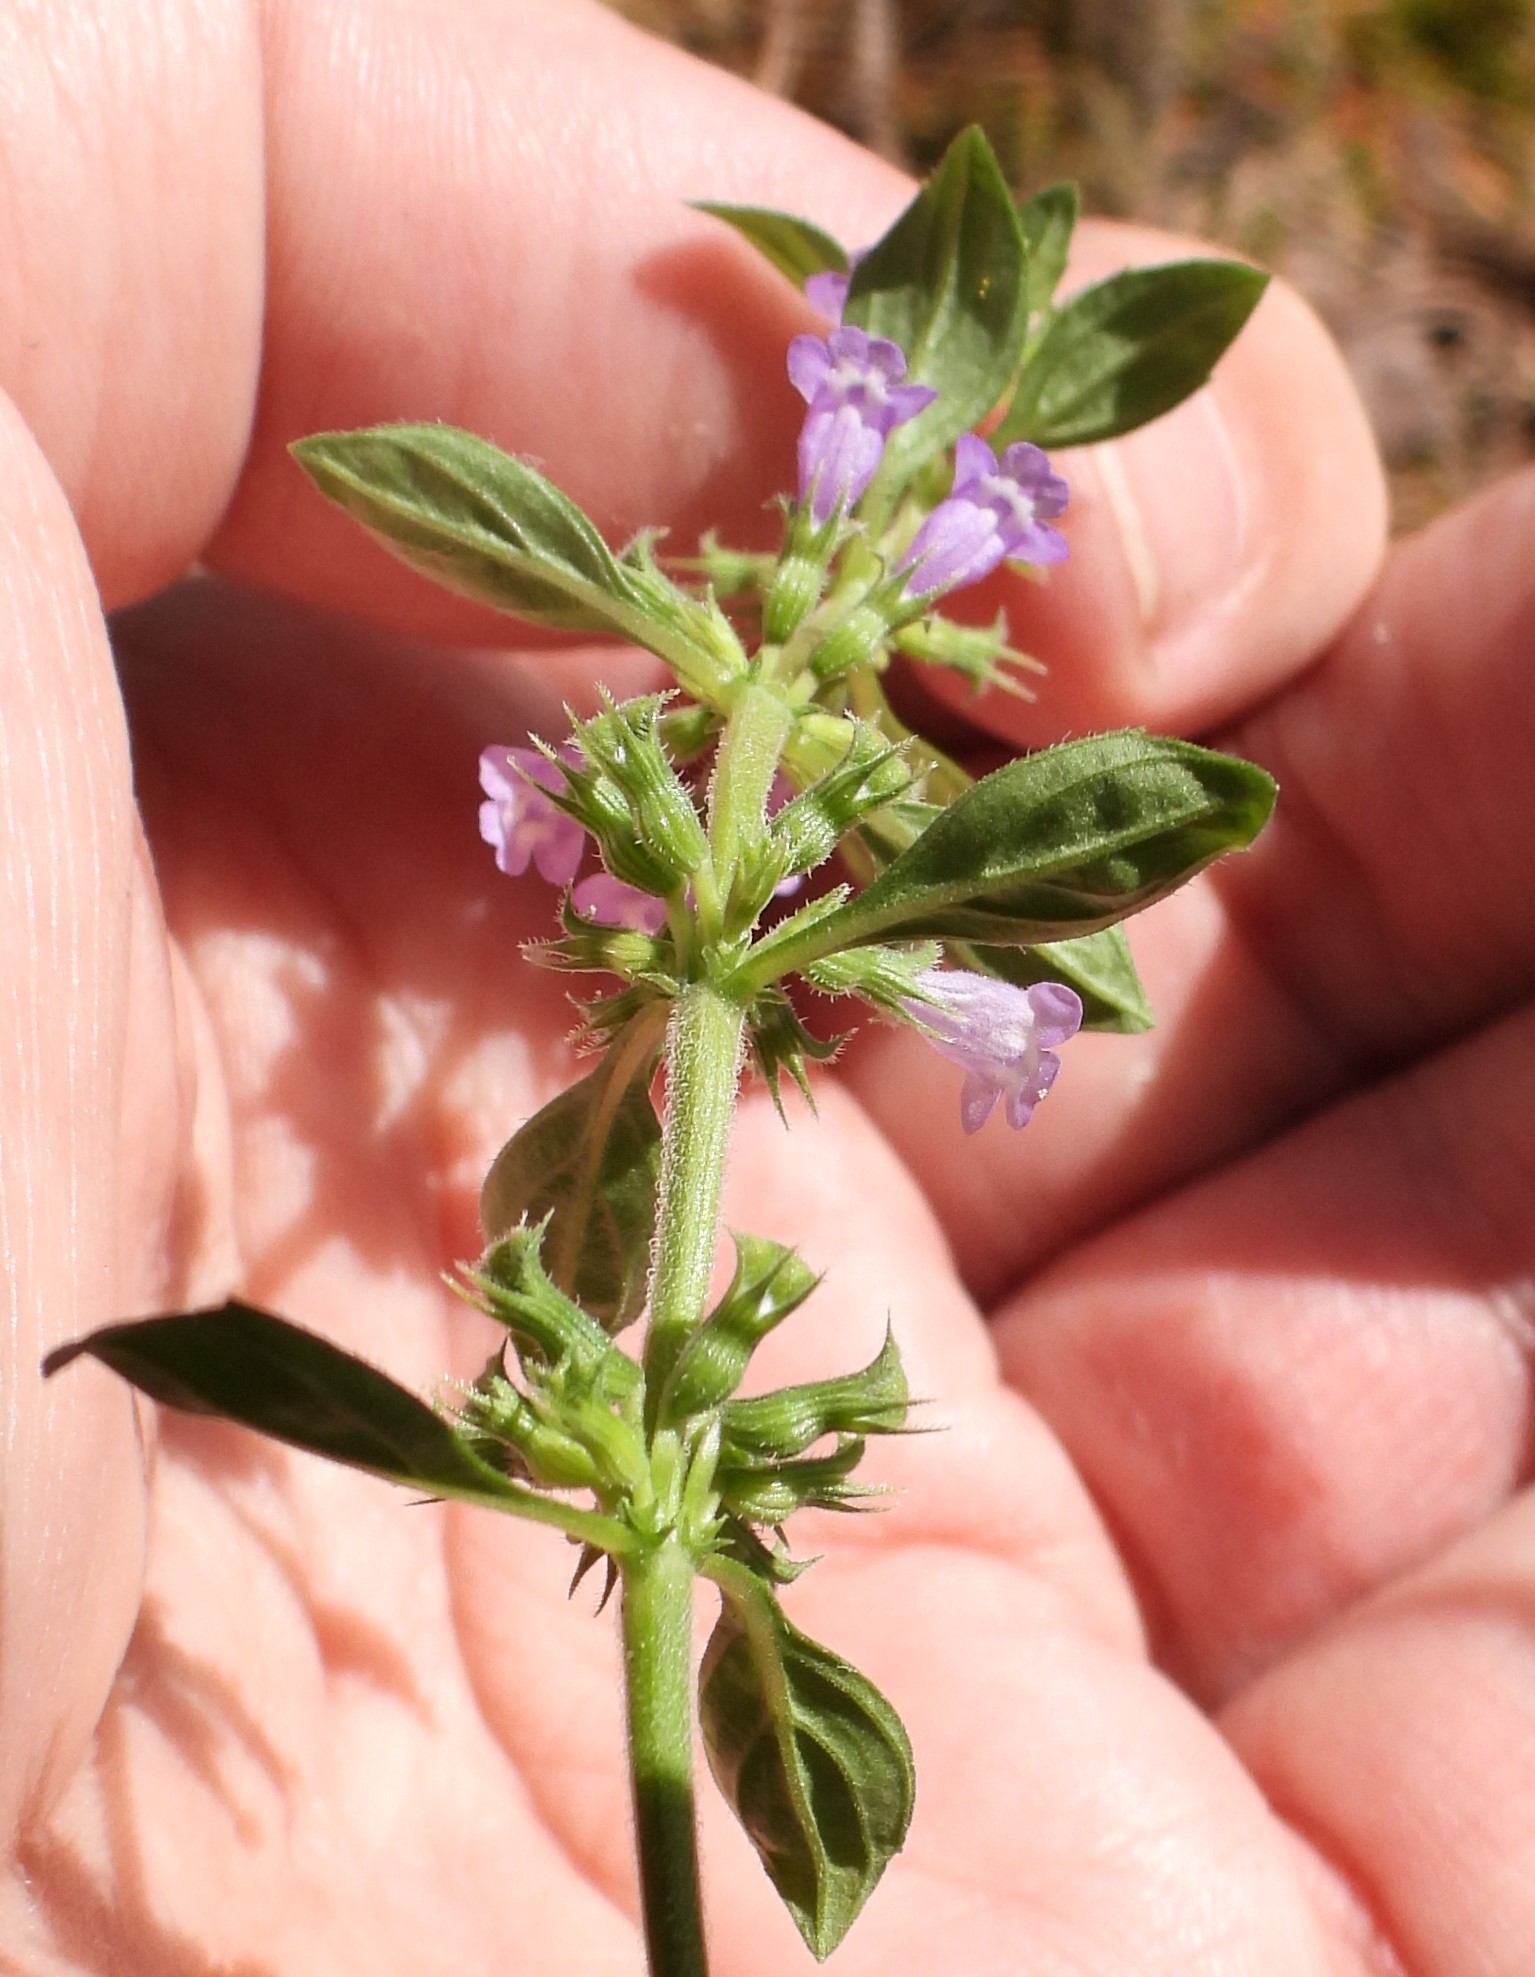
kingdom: Plantae
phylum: Tracheophyta
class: Magnoliopsida
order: Lamiales
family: Lamiaceae
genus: Clinopodium
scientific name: Clinopodium acinos
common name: Basil thyme
